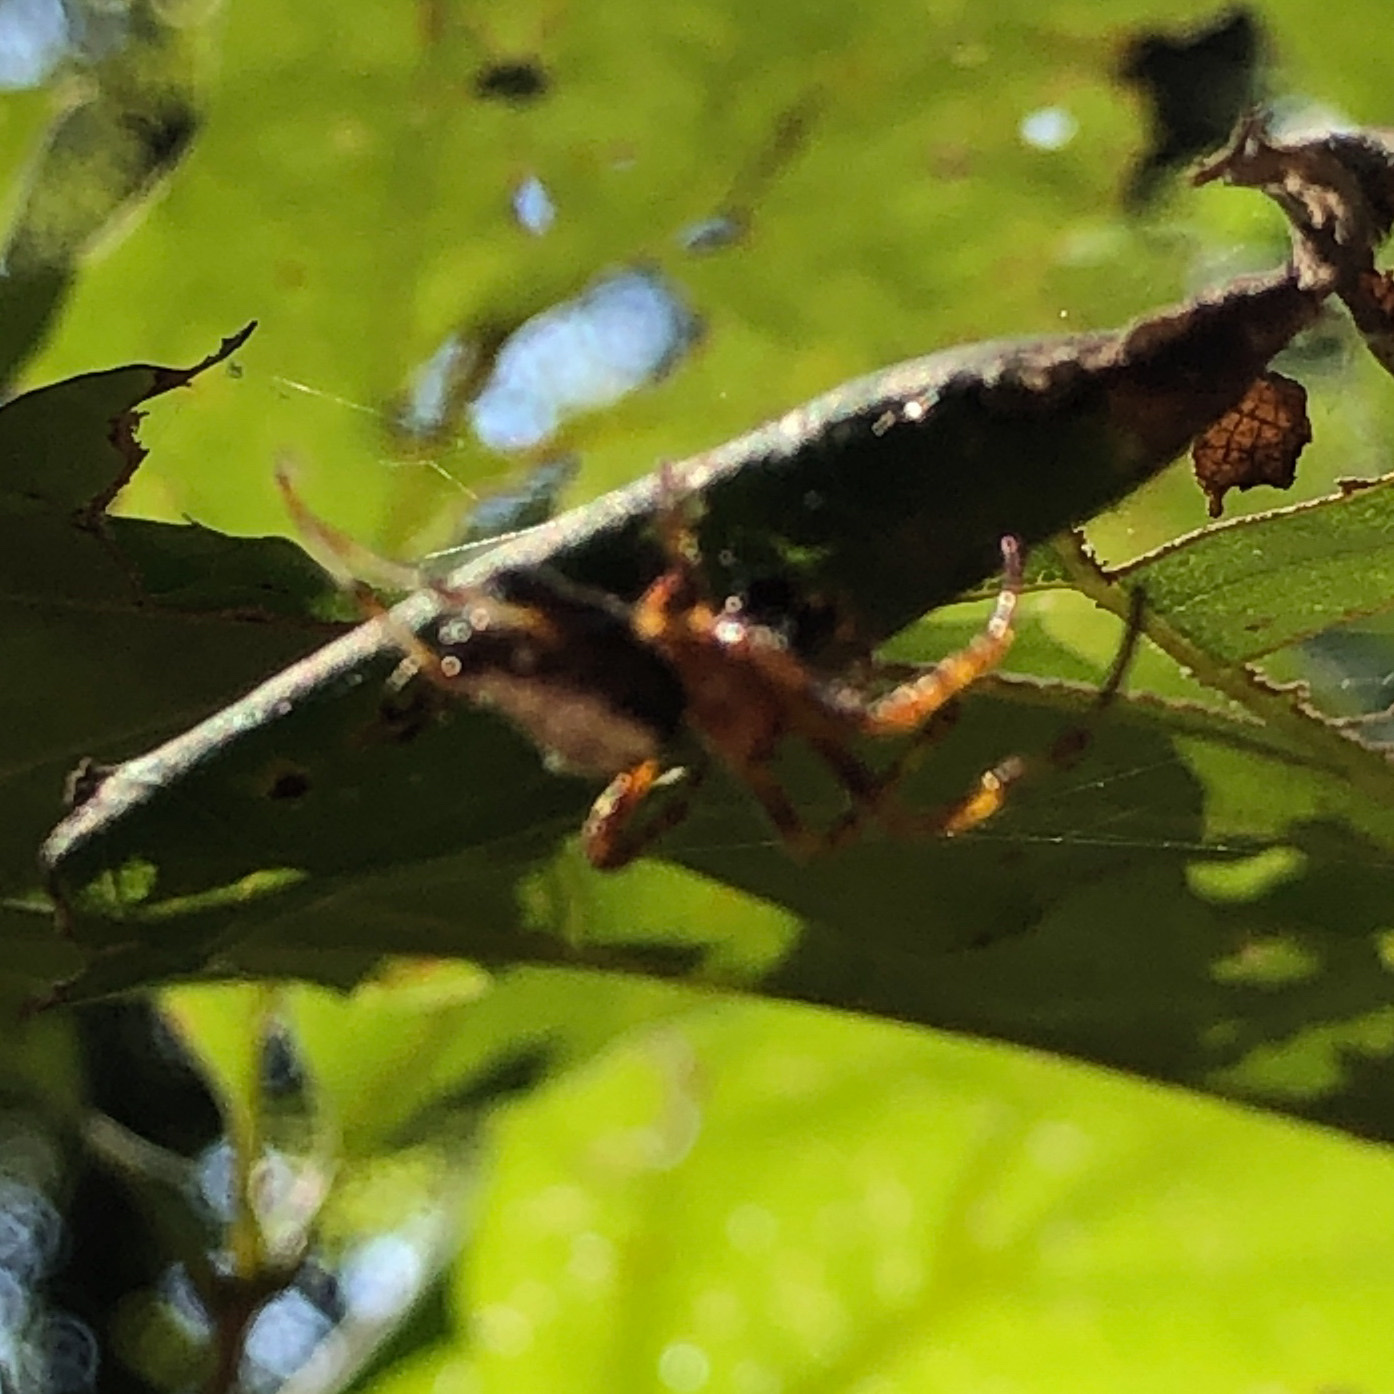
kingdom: Animalia
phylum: Arthropoda
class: Arachnida
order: Araneae
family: Araneidae
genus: Verrucosa
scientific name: Verrucosa arenata
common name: Orb weavers
